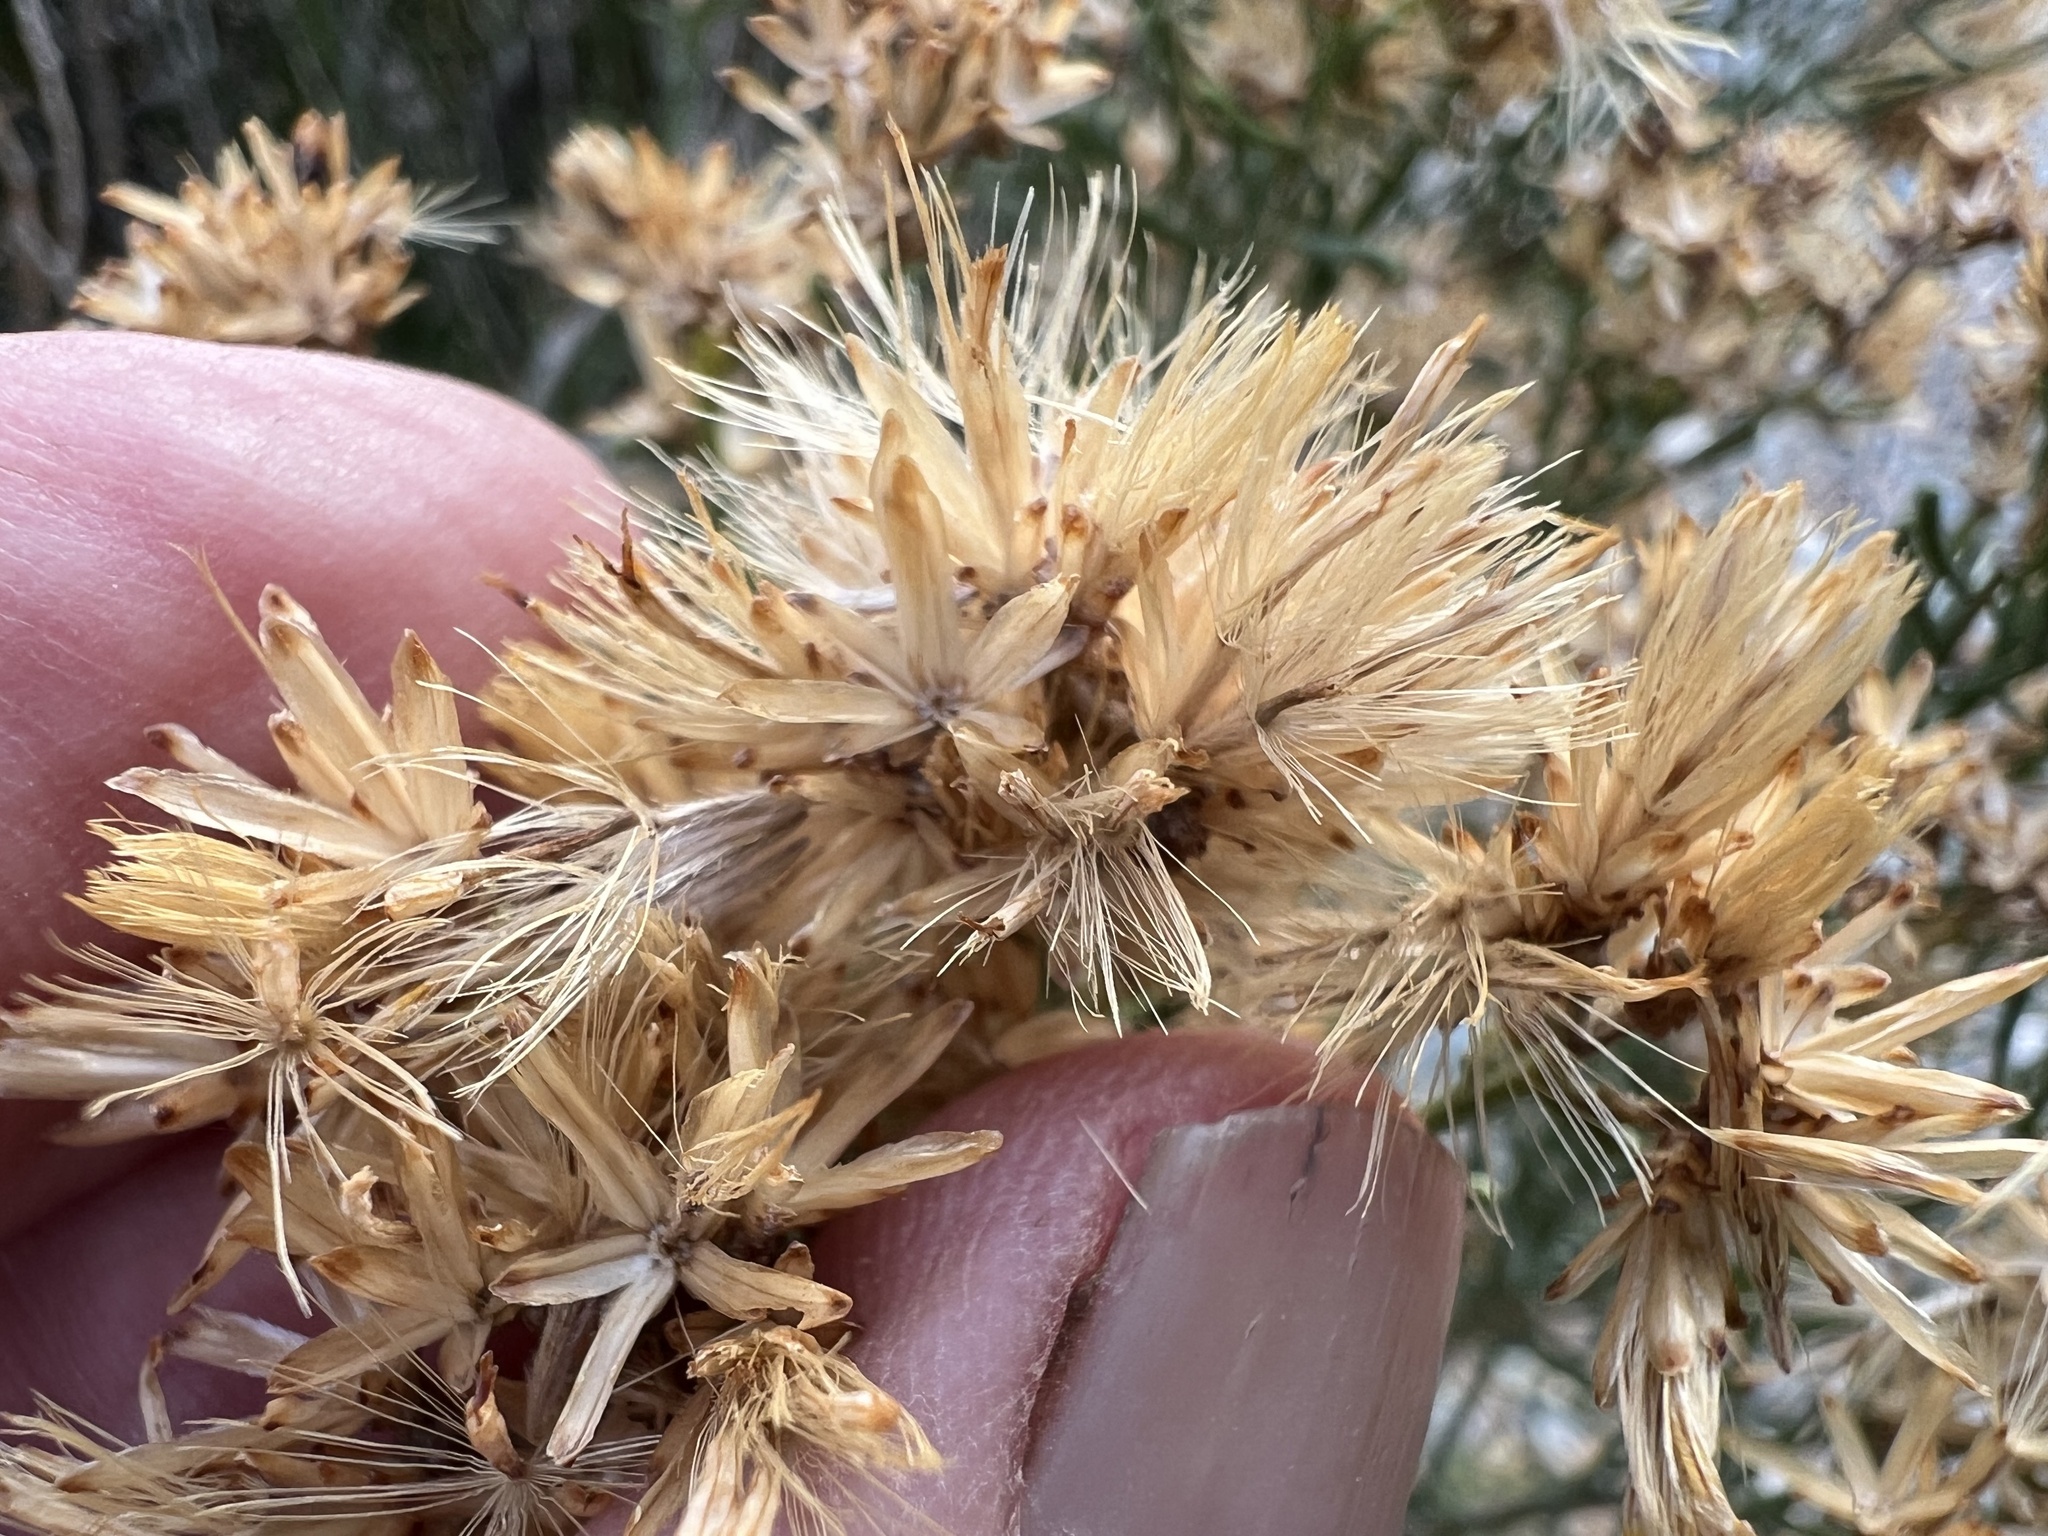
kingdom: Plantae
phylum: Tracheophyta
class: Magnoliopsida
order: Asterales
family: Asteraceae
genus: Ericameria
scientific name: Ericameria teretifolia
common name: Round-leaf rabbitbrush
